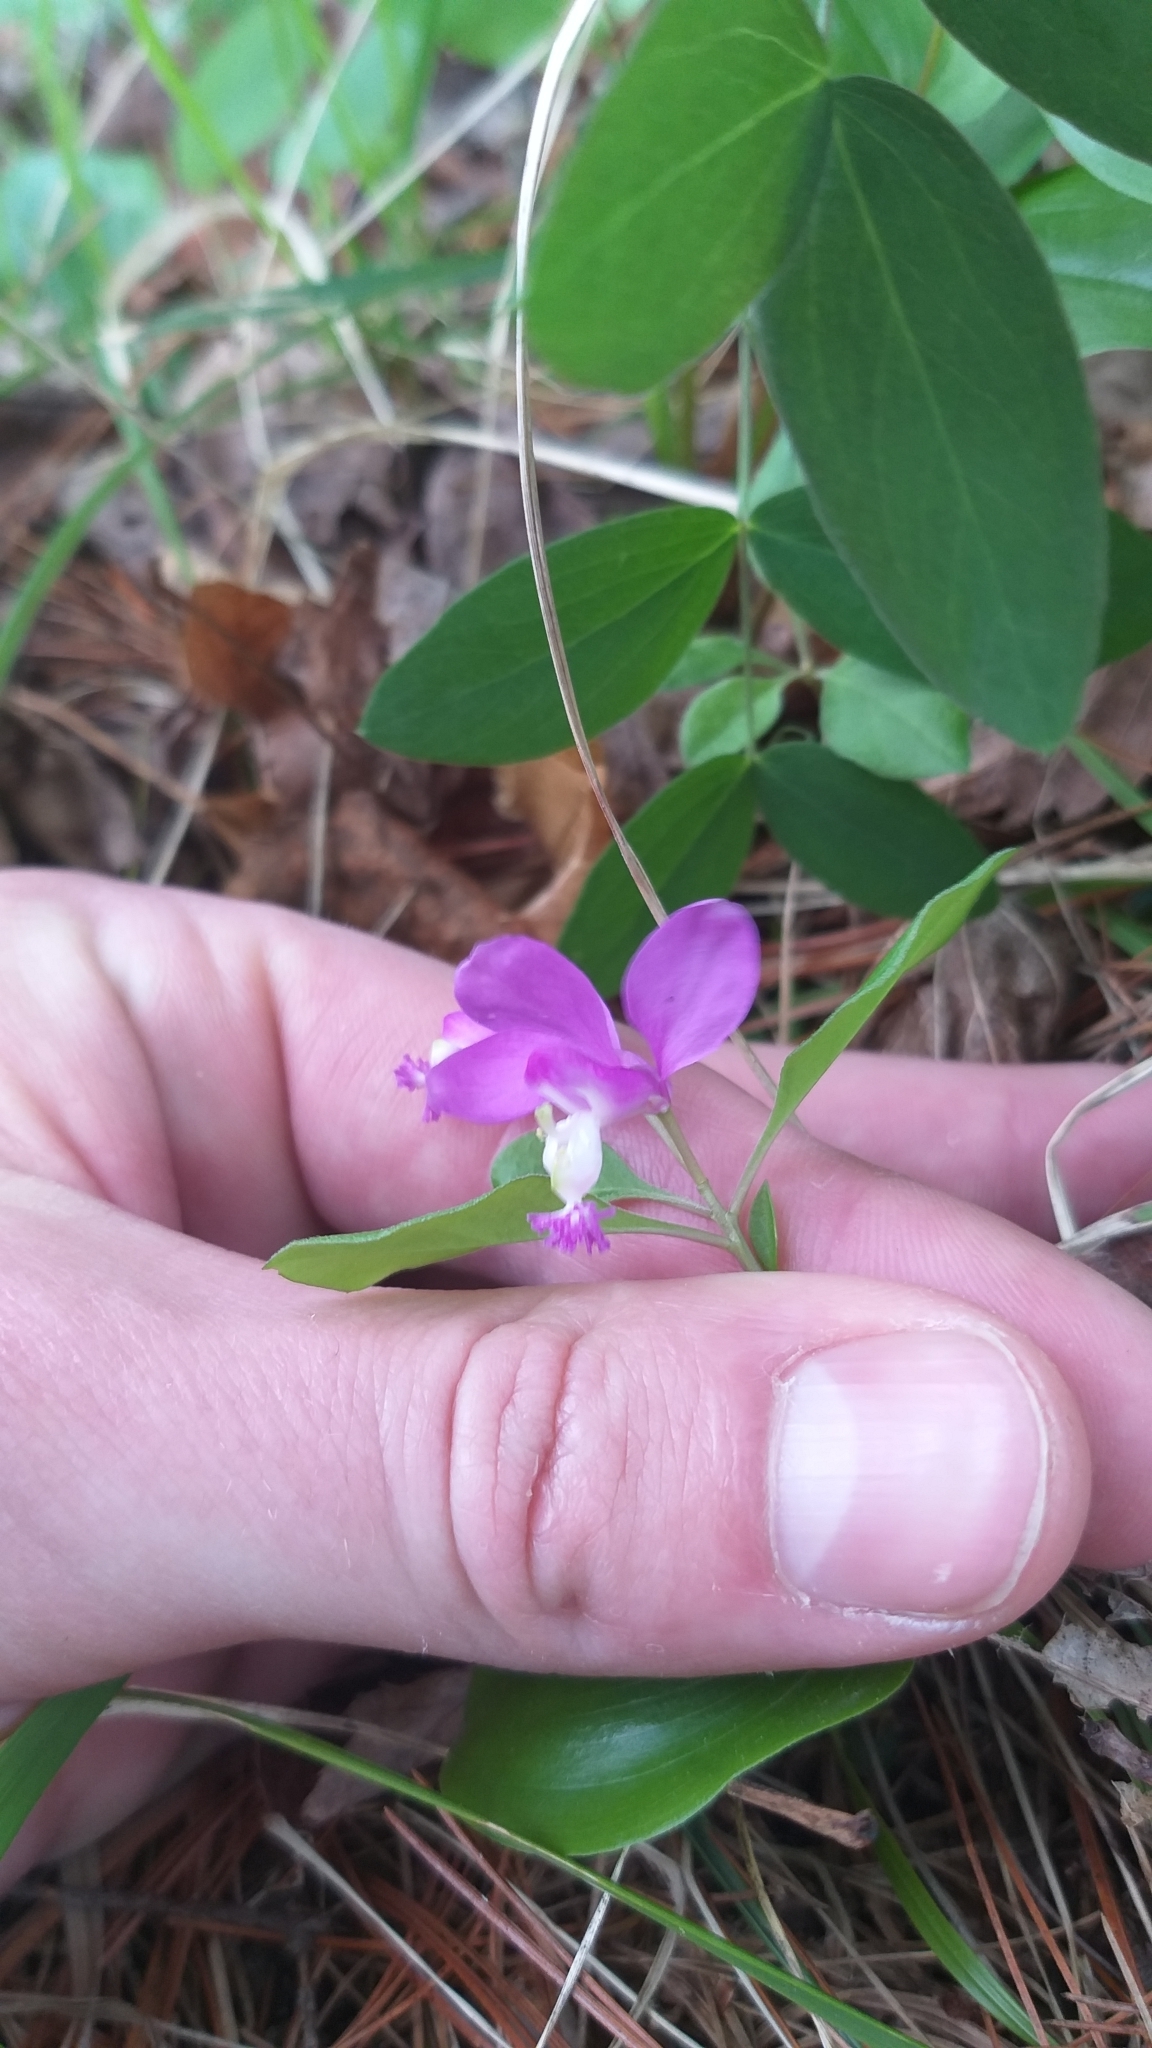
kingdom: Plantae
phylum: Tracheophyta
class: Magnoliopsida
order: Fabales
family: Polygalaceae
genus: Polygaloides
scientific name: Polygaloides paucifolia
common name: Bird-on-the-wing
